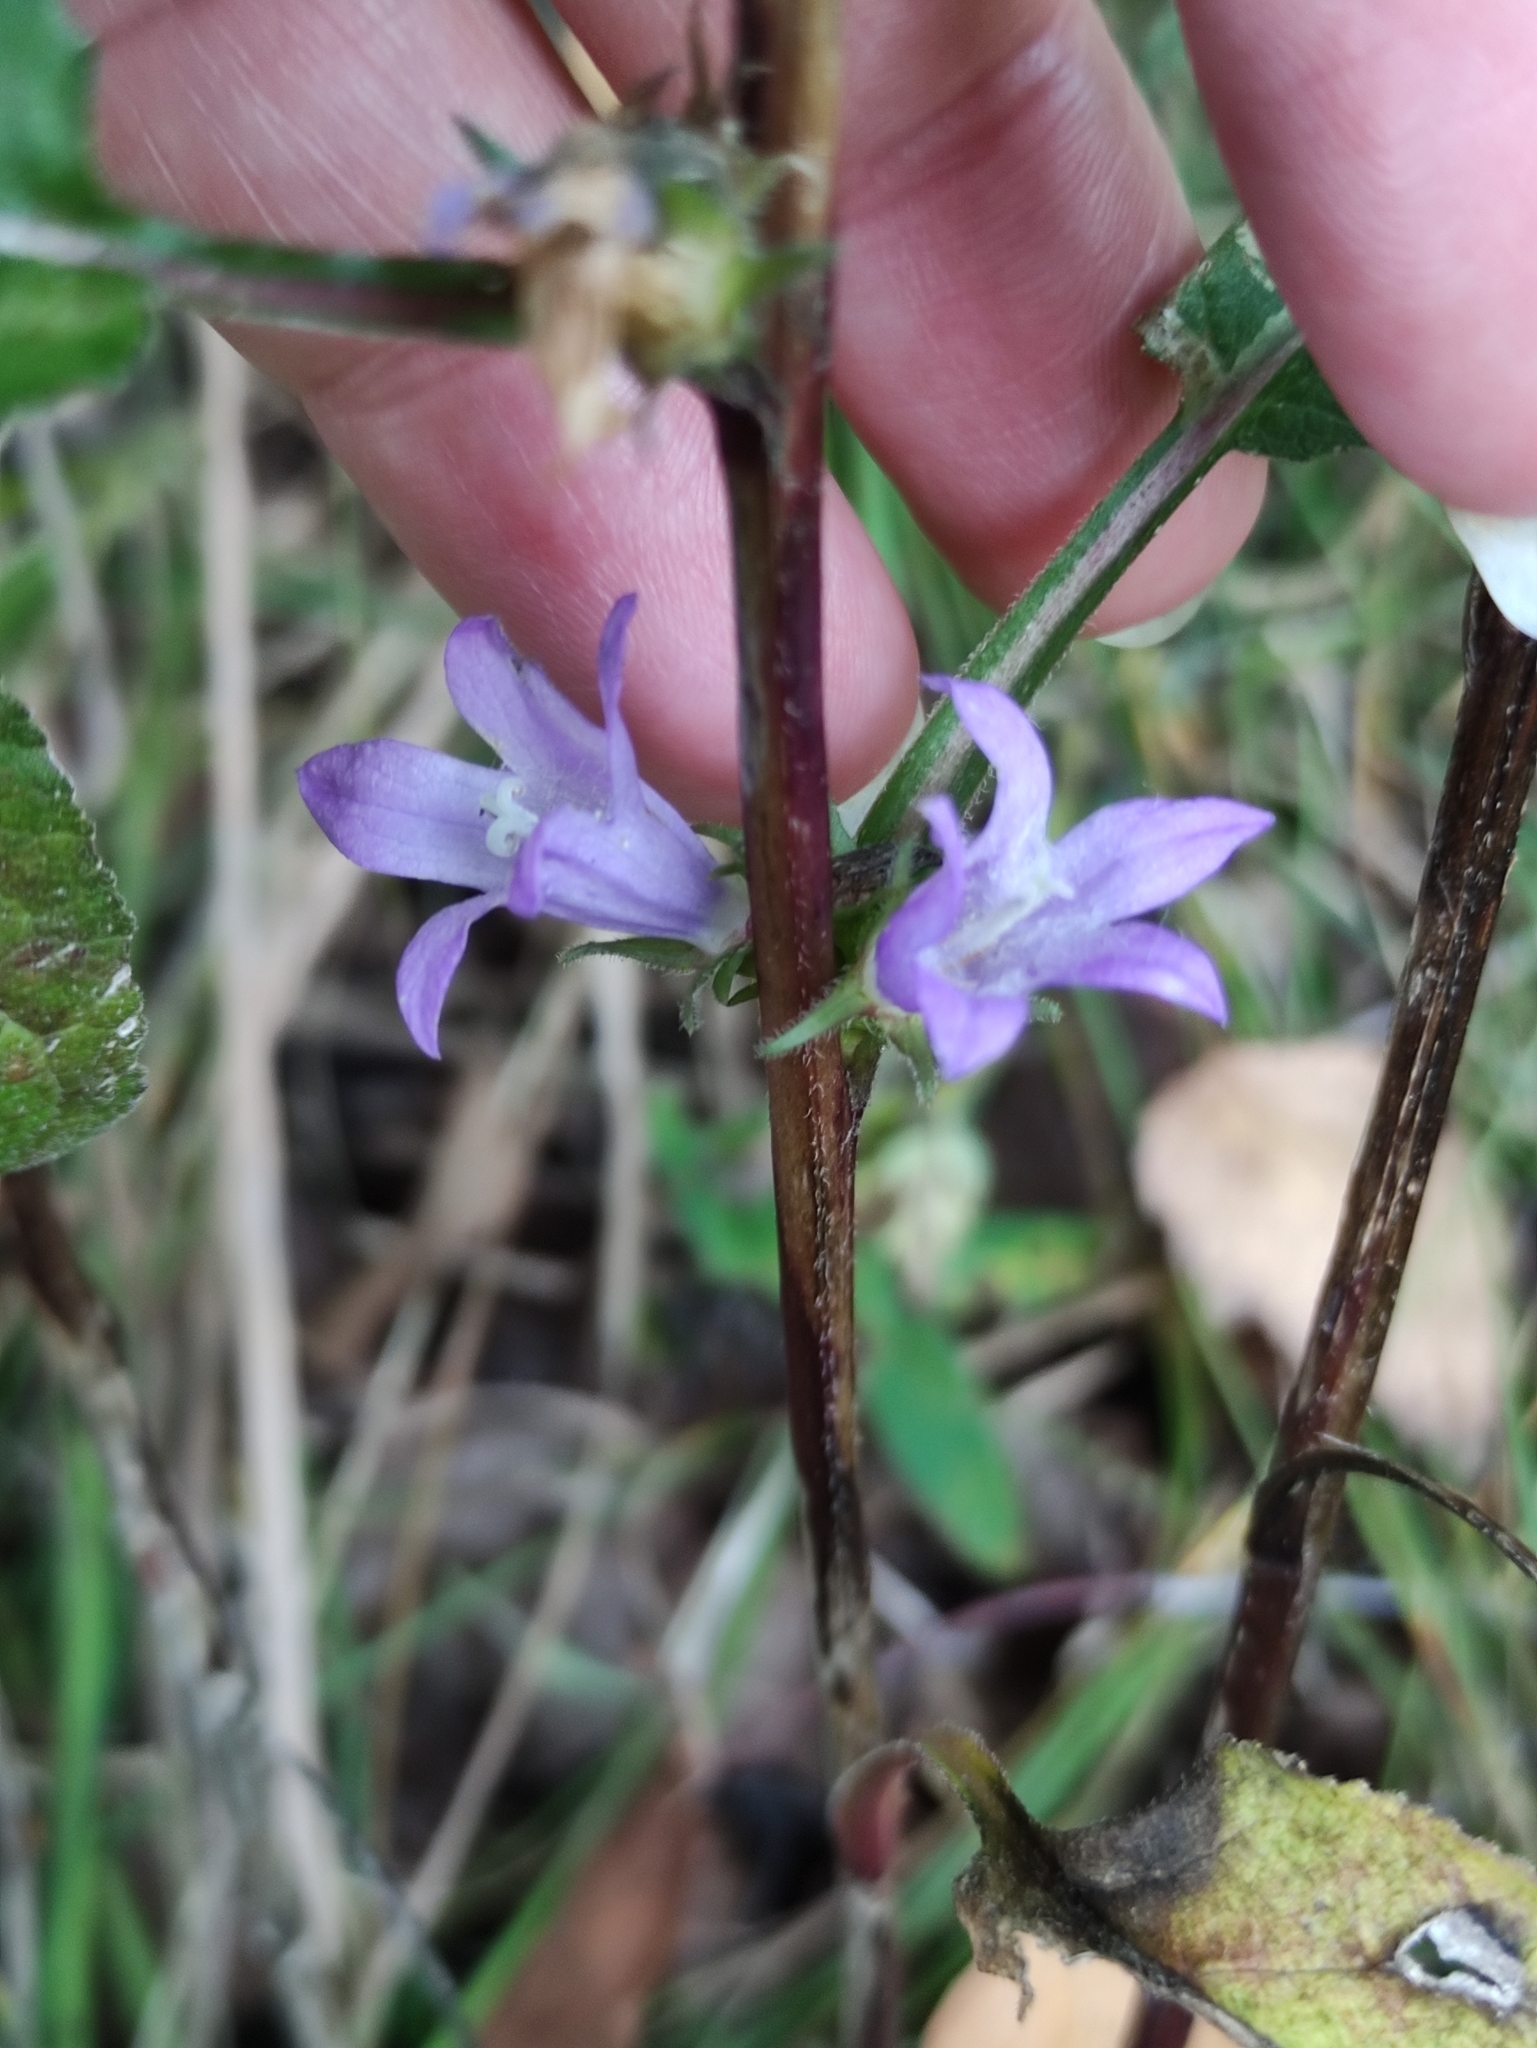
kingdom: Plantae
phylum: Tracheophyta
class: Magnoliopsida
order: Asterales
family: Campanulaceae
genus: Campanula
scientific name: Campanula glomerata
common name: Clustered bellflower
